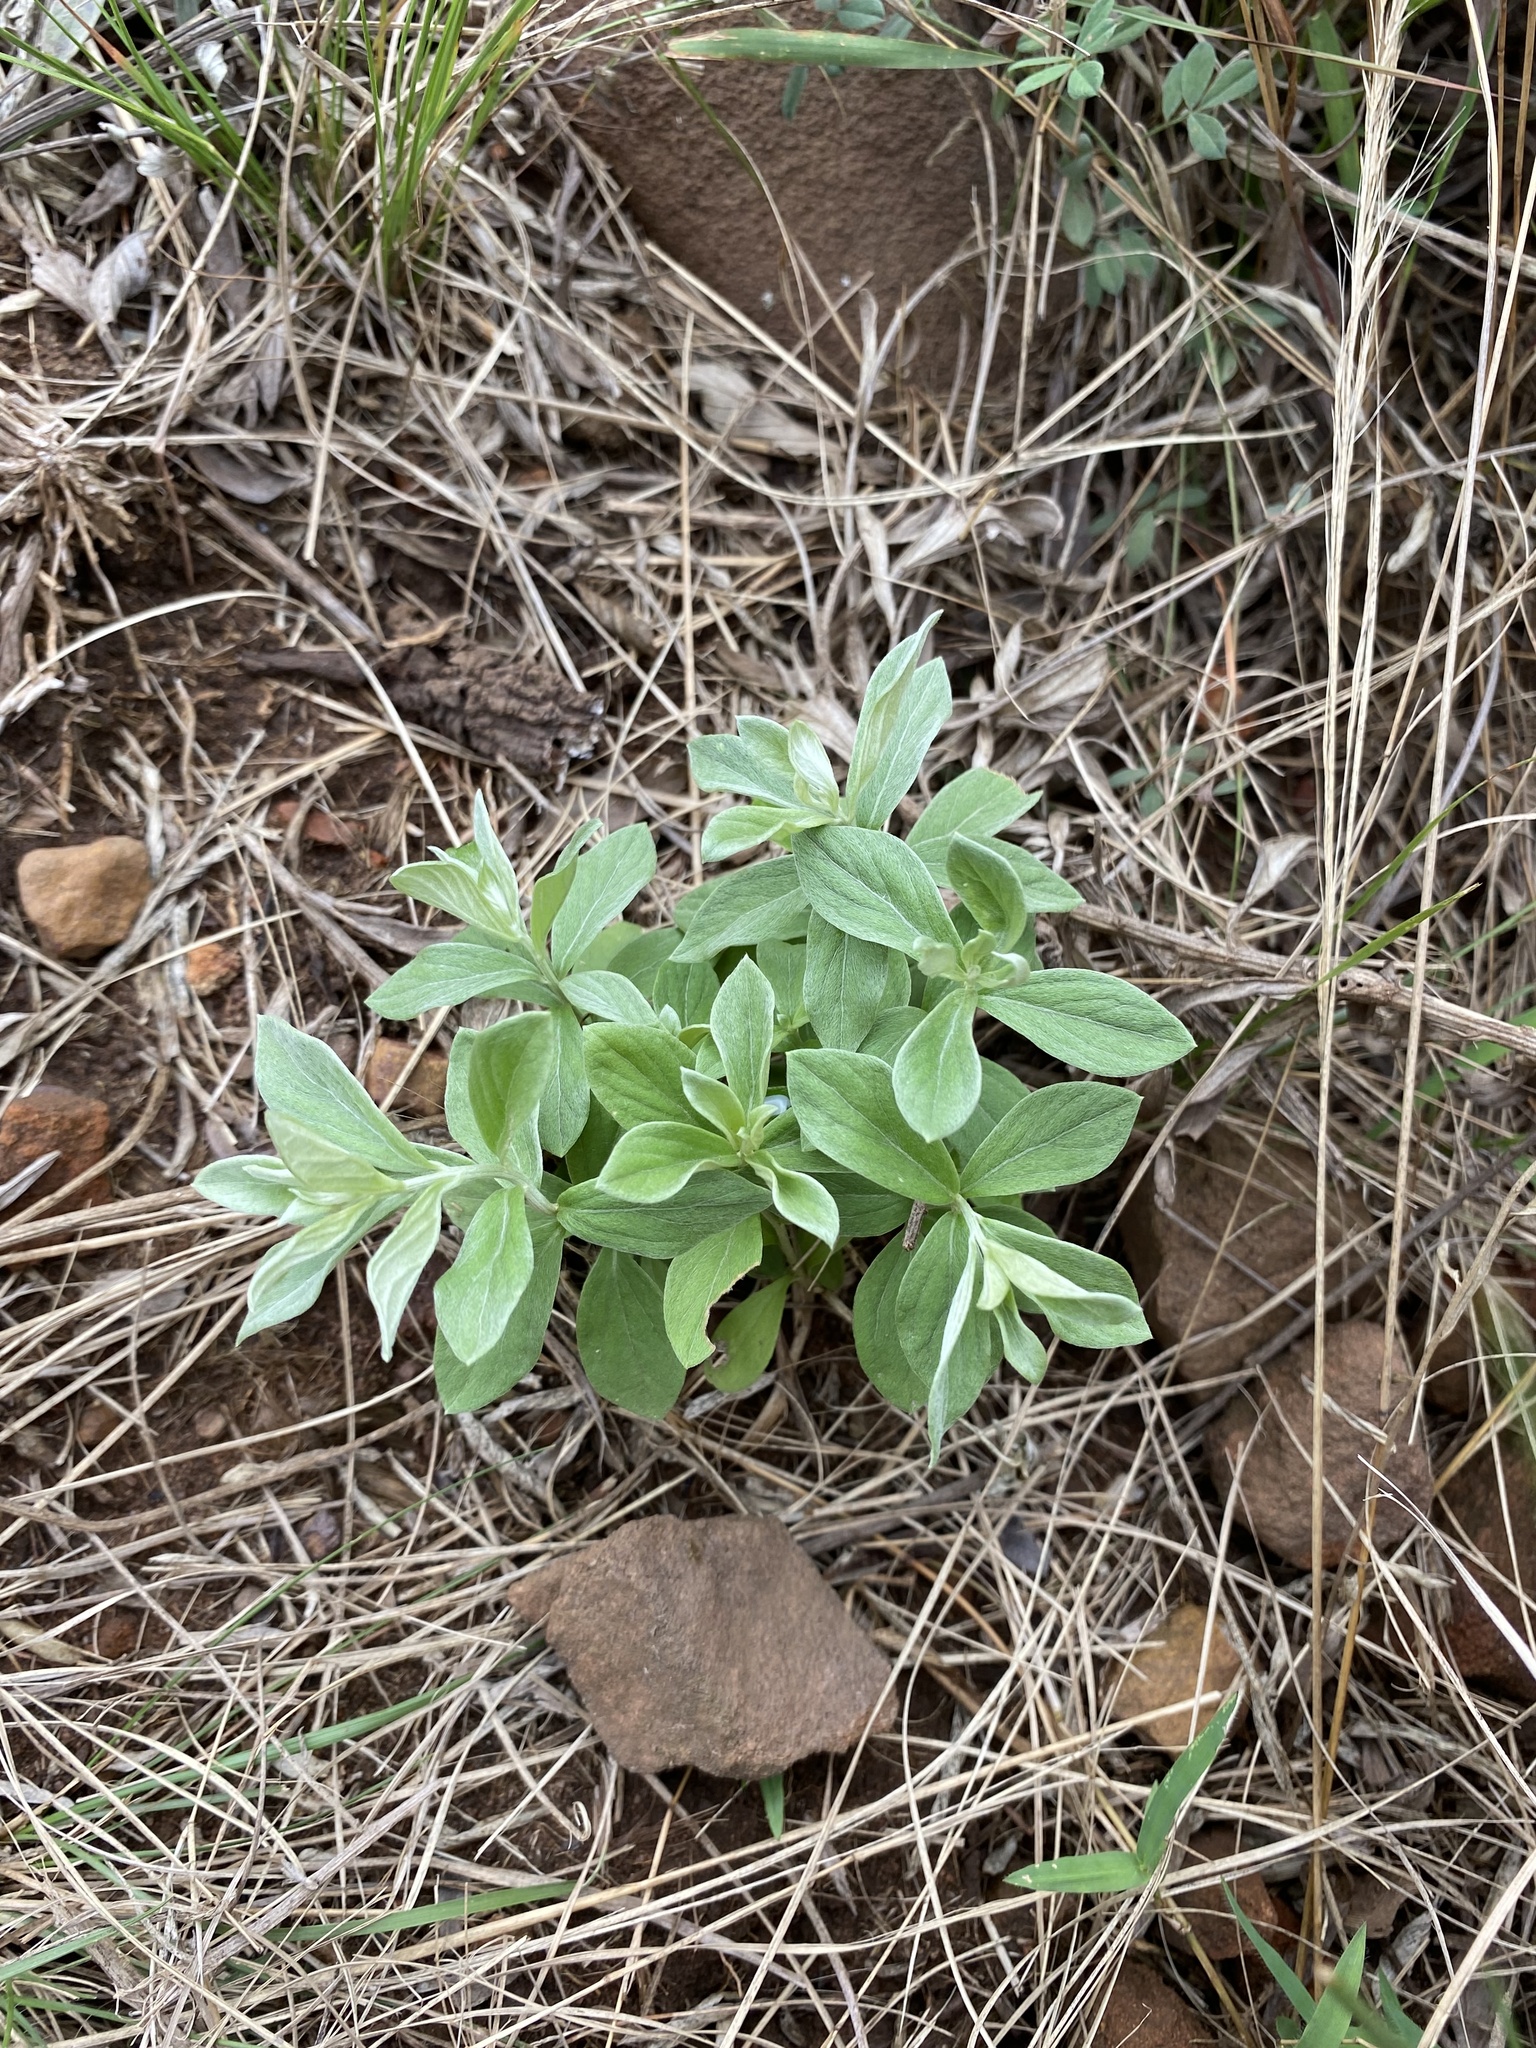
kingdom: Plantae
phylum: Tracheophyta
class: Magnoliopsida
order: Asterales
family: Asteraceae
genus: Hilliardiella
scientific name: Hilliardiella oligocephala
